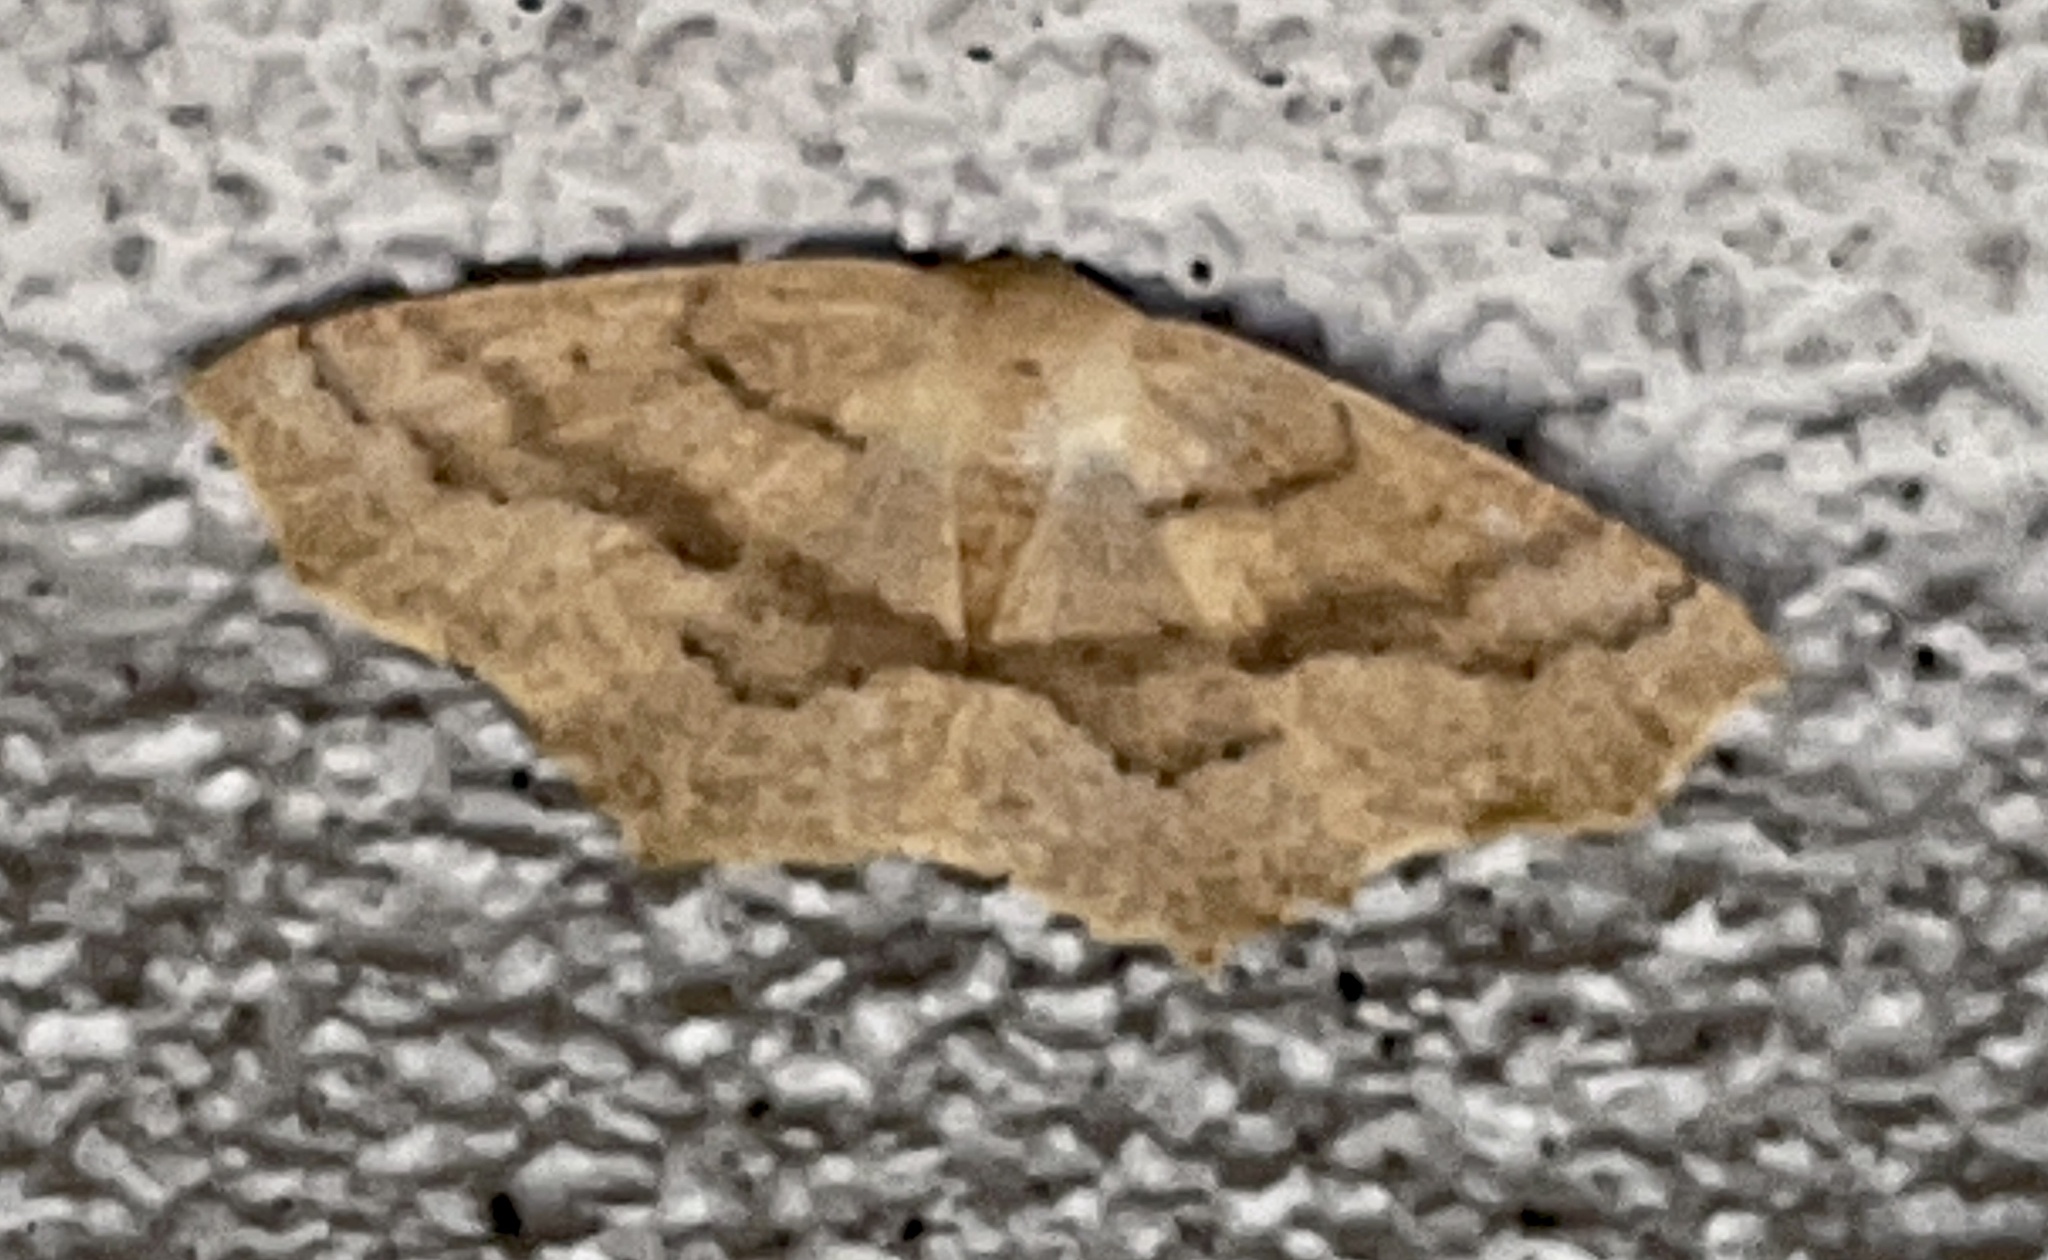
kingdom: Animalia
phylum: Arthropoda
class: Insecta
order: Lepidoptera
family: Geometridae
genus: Sabulodes
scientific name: Sabulodes aegrotata
